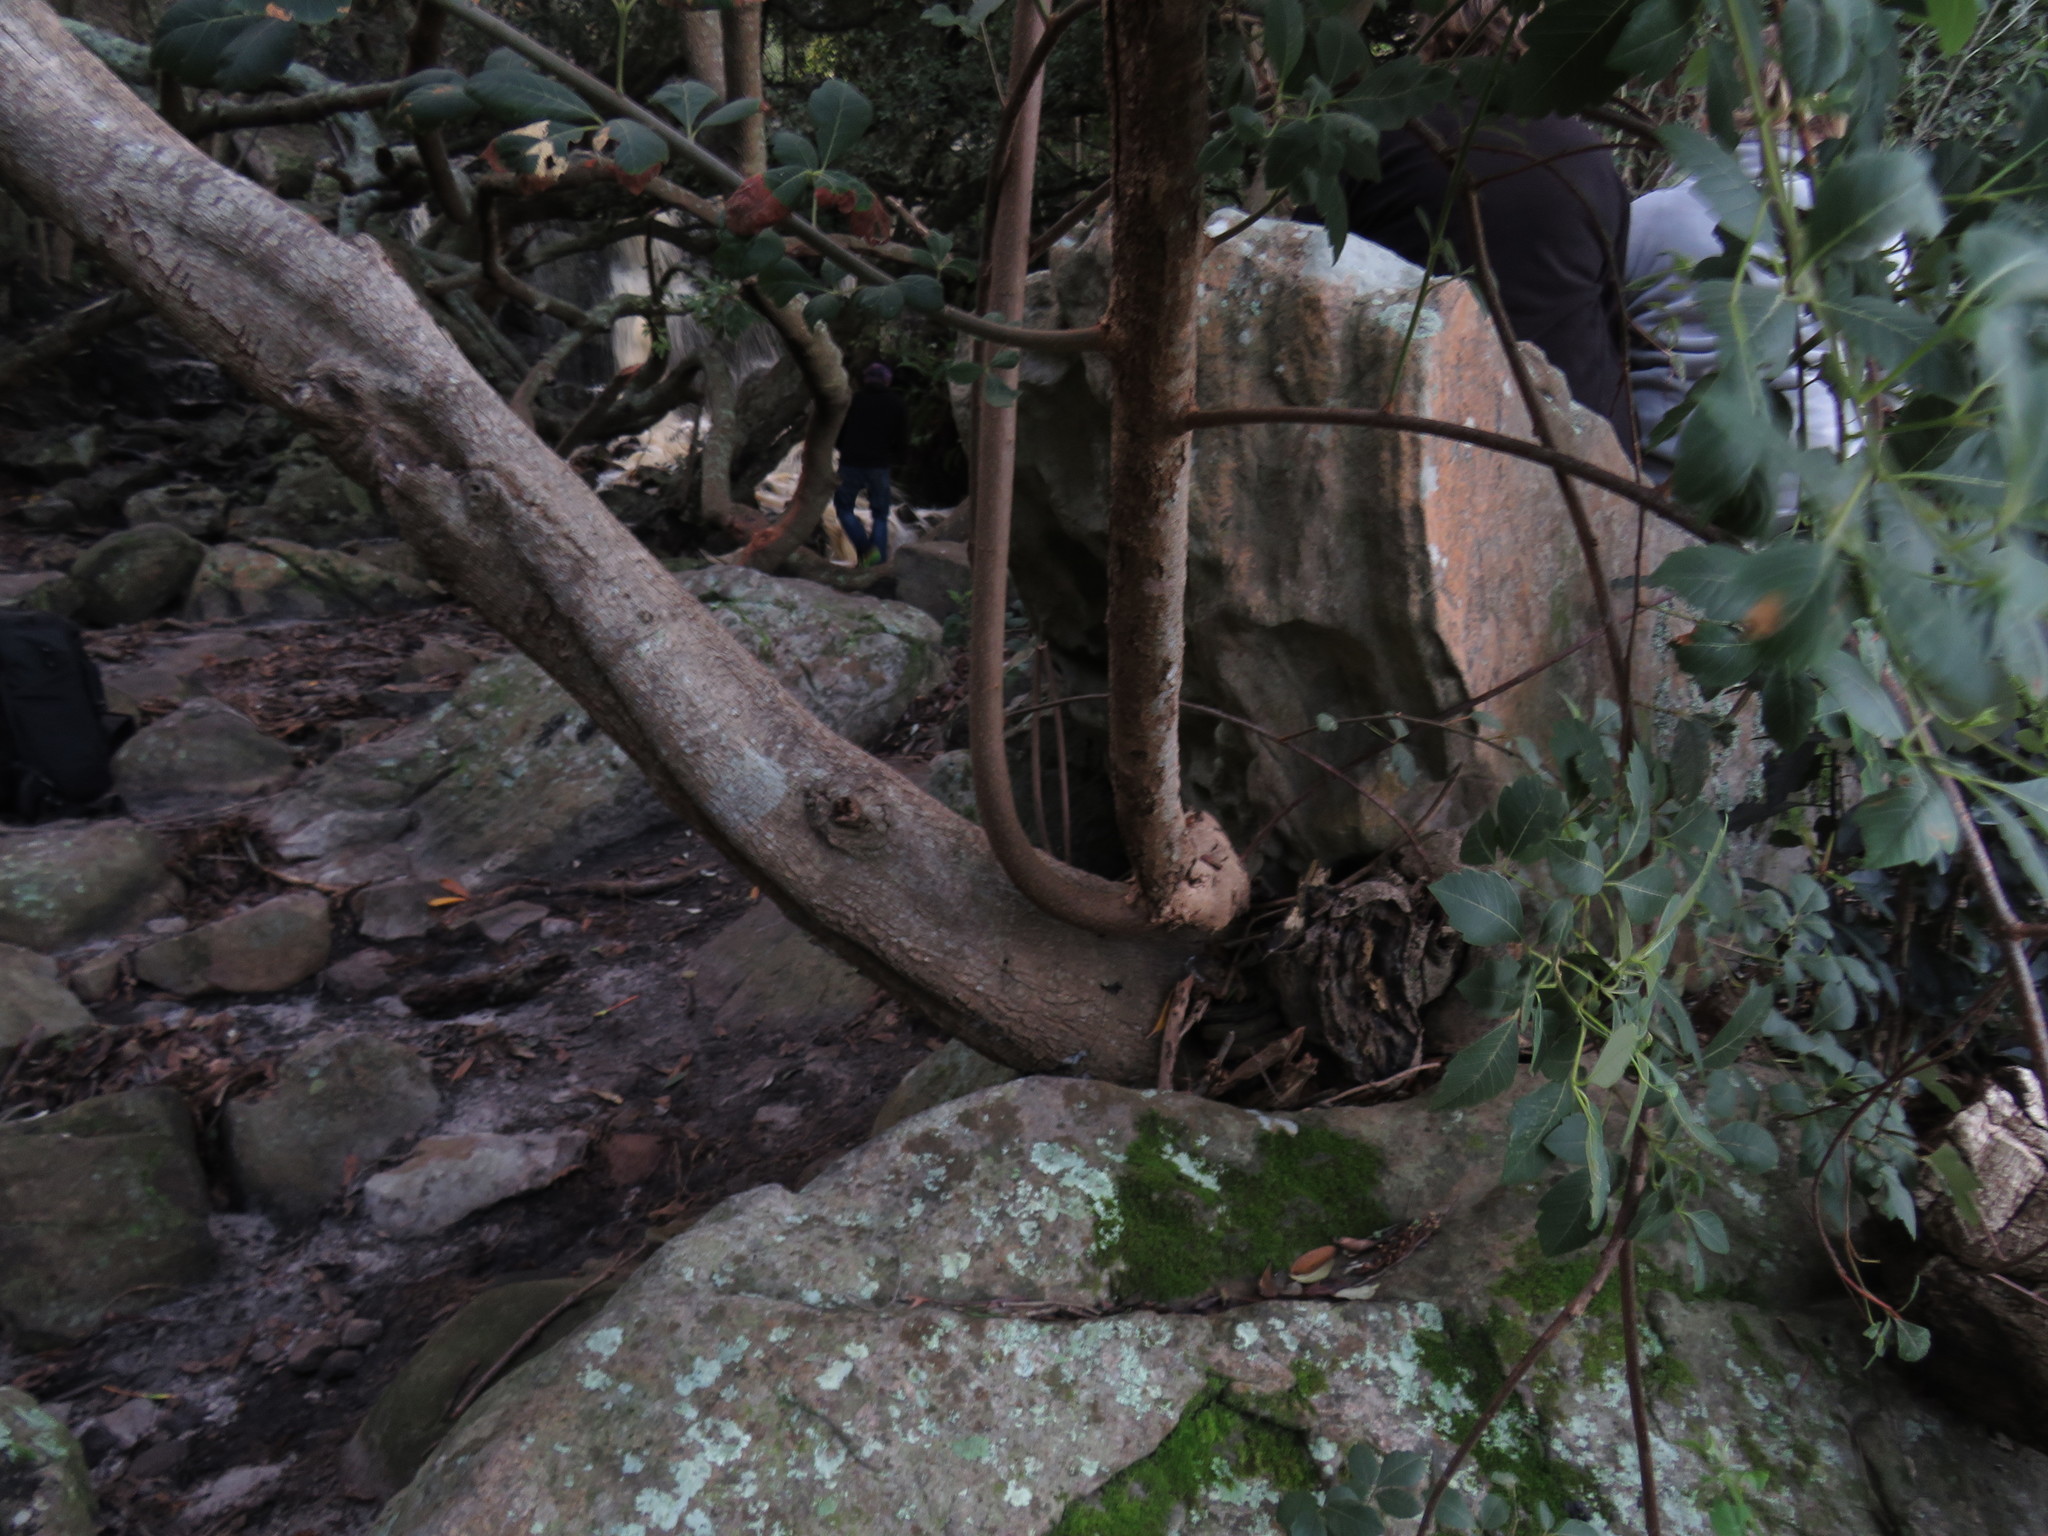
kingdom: Plantae
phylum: Tracheophyta
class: Magnoliopsida
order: Sapindales
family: Anacardiaceae
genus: Searsia
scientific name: Searsia tomentosa
